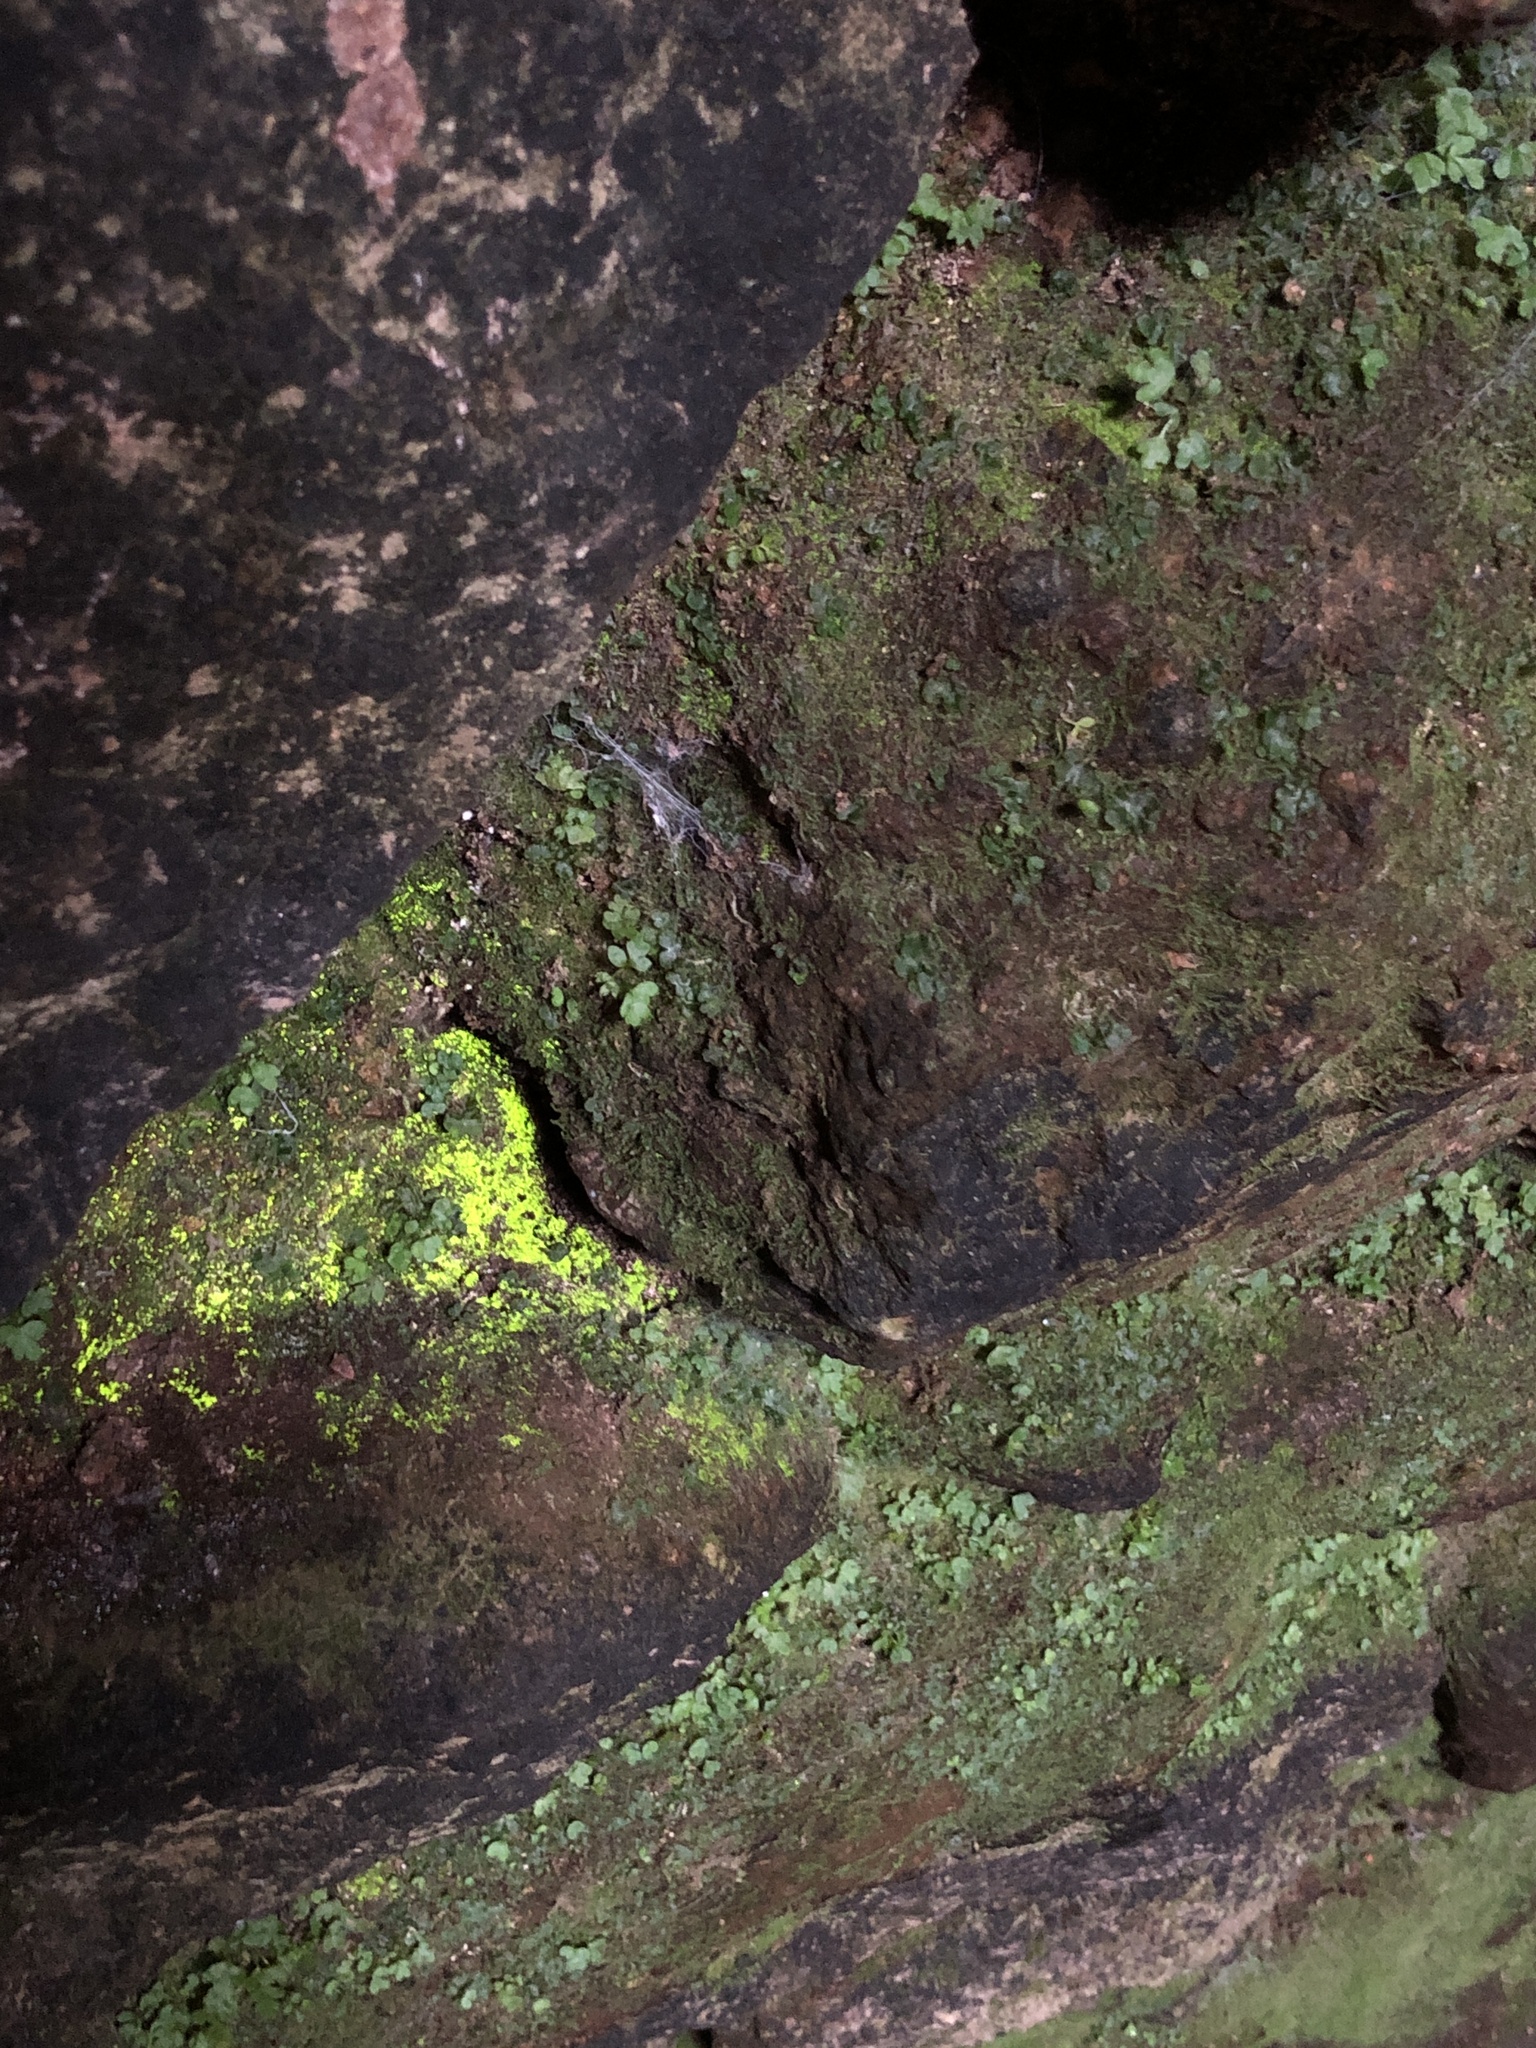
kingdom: Plantae
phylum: Bryophyta
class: Bryopsida
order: Dicranales
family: Schistostegaceae
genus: Schistostega
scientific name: Schistostega pennata
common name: Luminous moss
